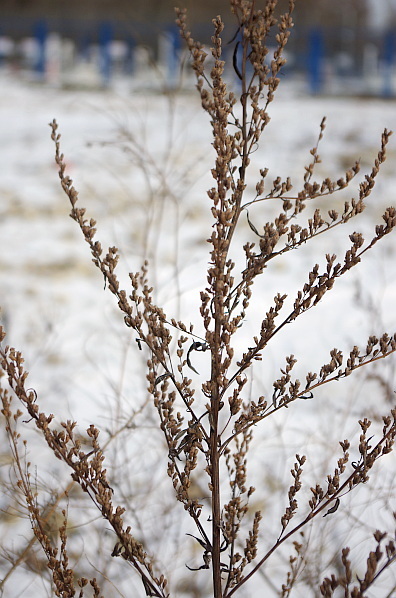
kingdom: Plantae
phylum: Tracheophyta
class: Magnoliopsida
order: Asterales
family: Asteraceae
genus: Artemisia
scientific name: Artemisia vulgaris
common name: Mugwort
